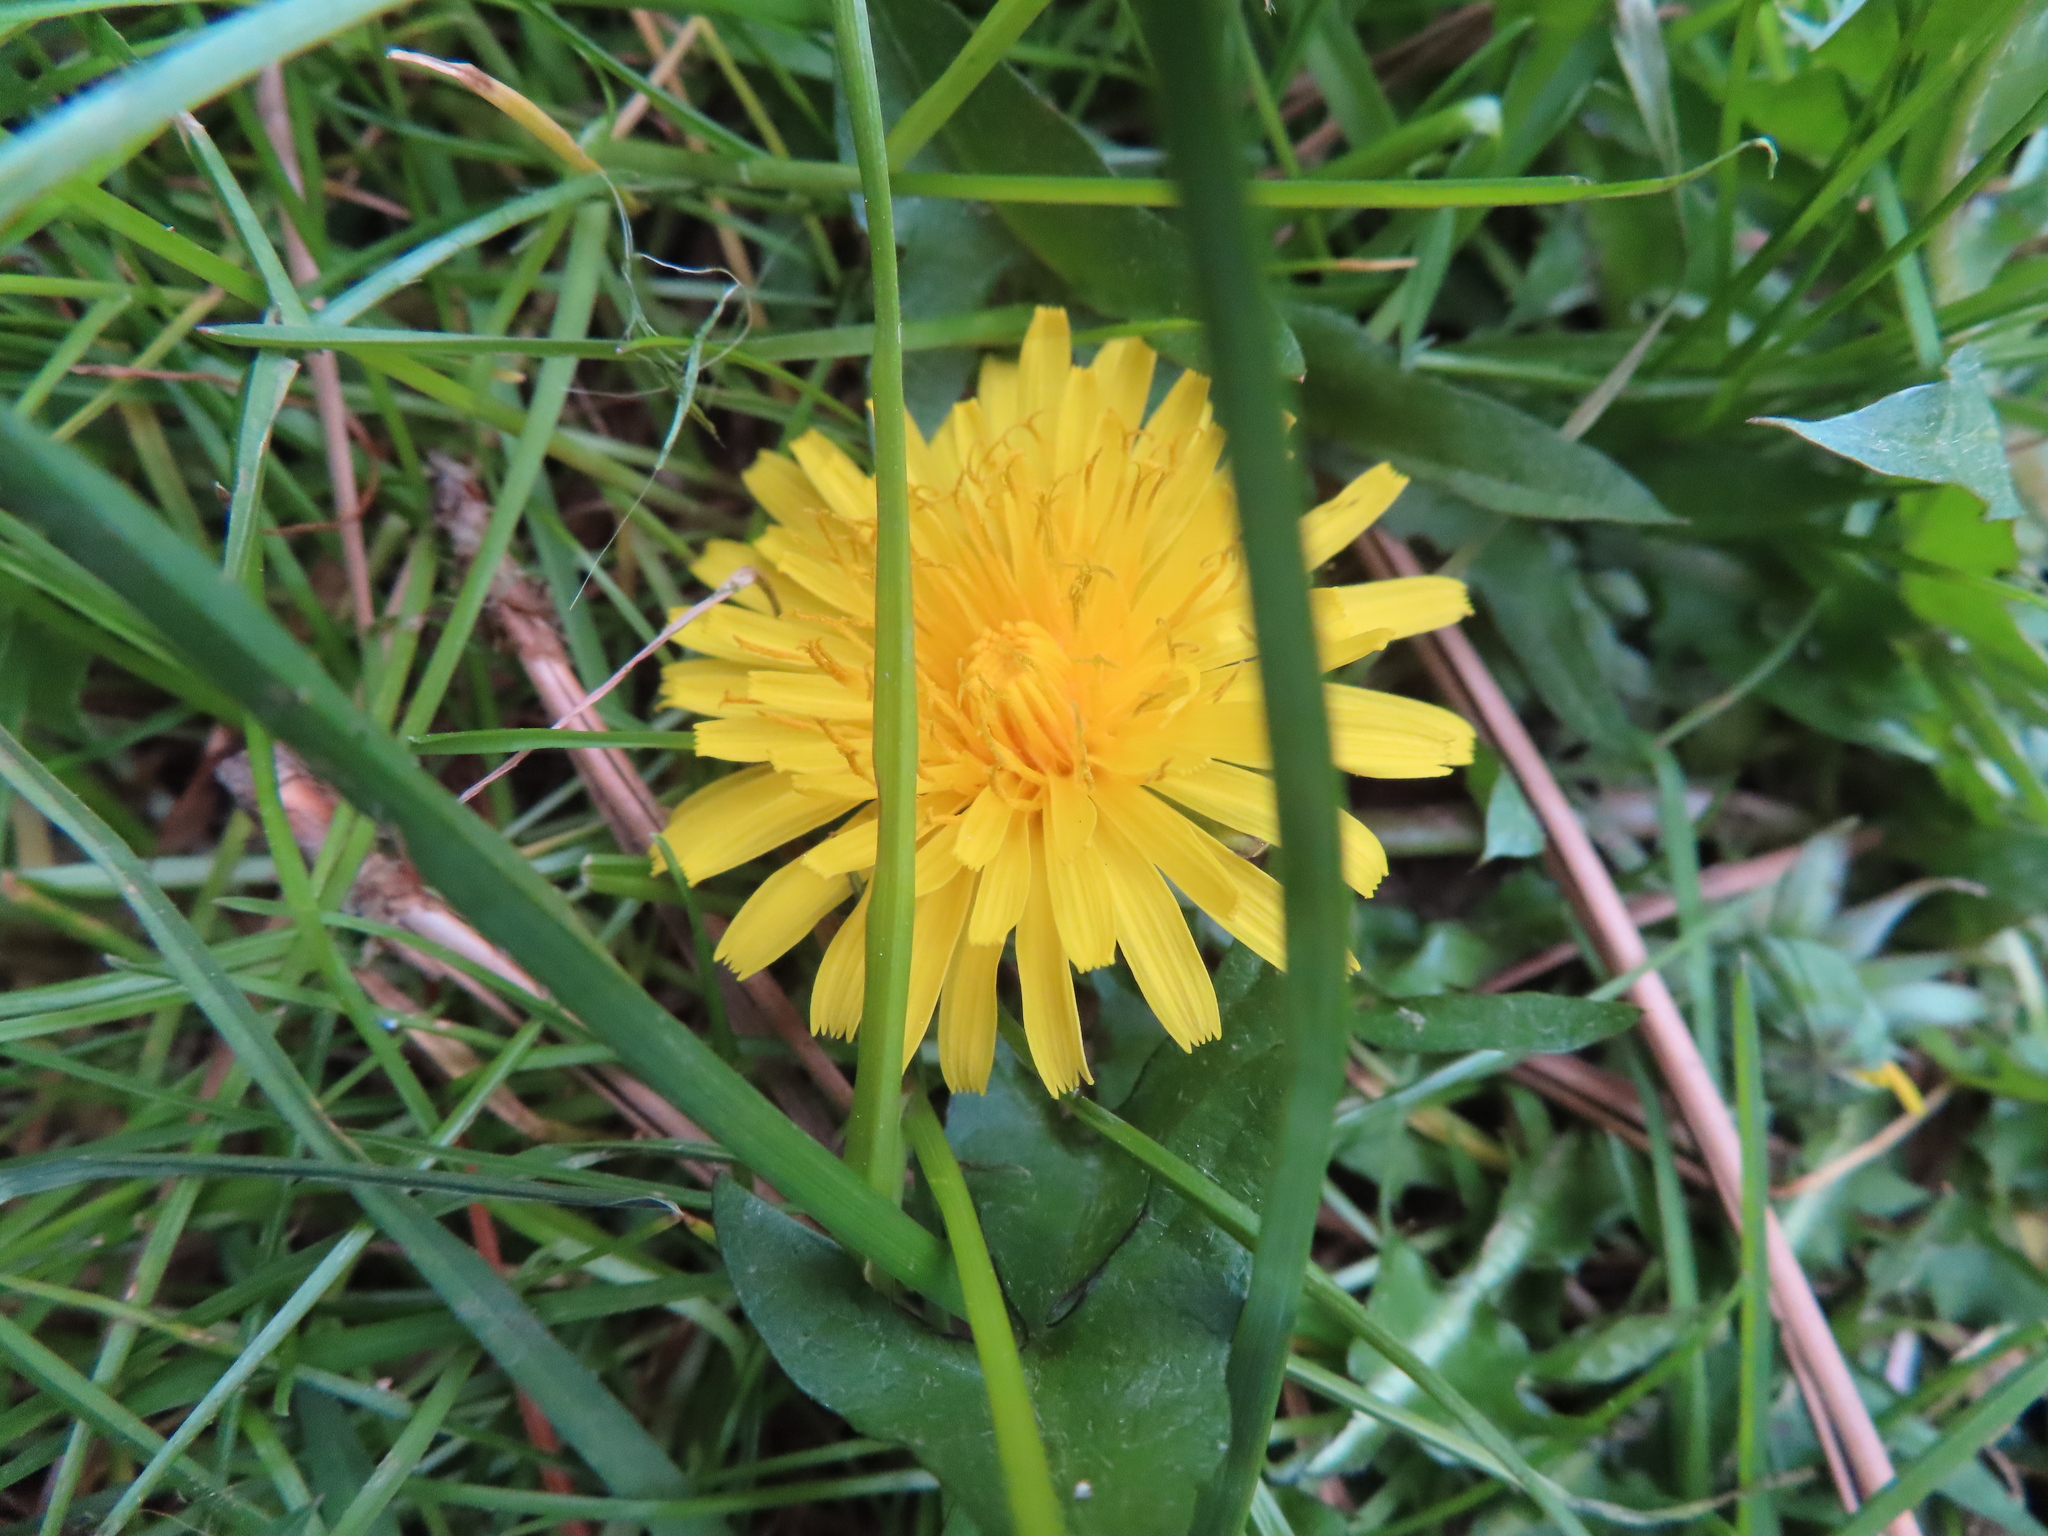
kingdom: Plantae
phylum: Tracheophyta
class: Magnoliopsida
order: Asterales
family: Asteraceae
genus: Taraxacum
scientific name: Taraxacum
